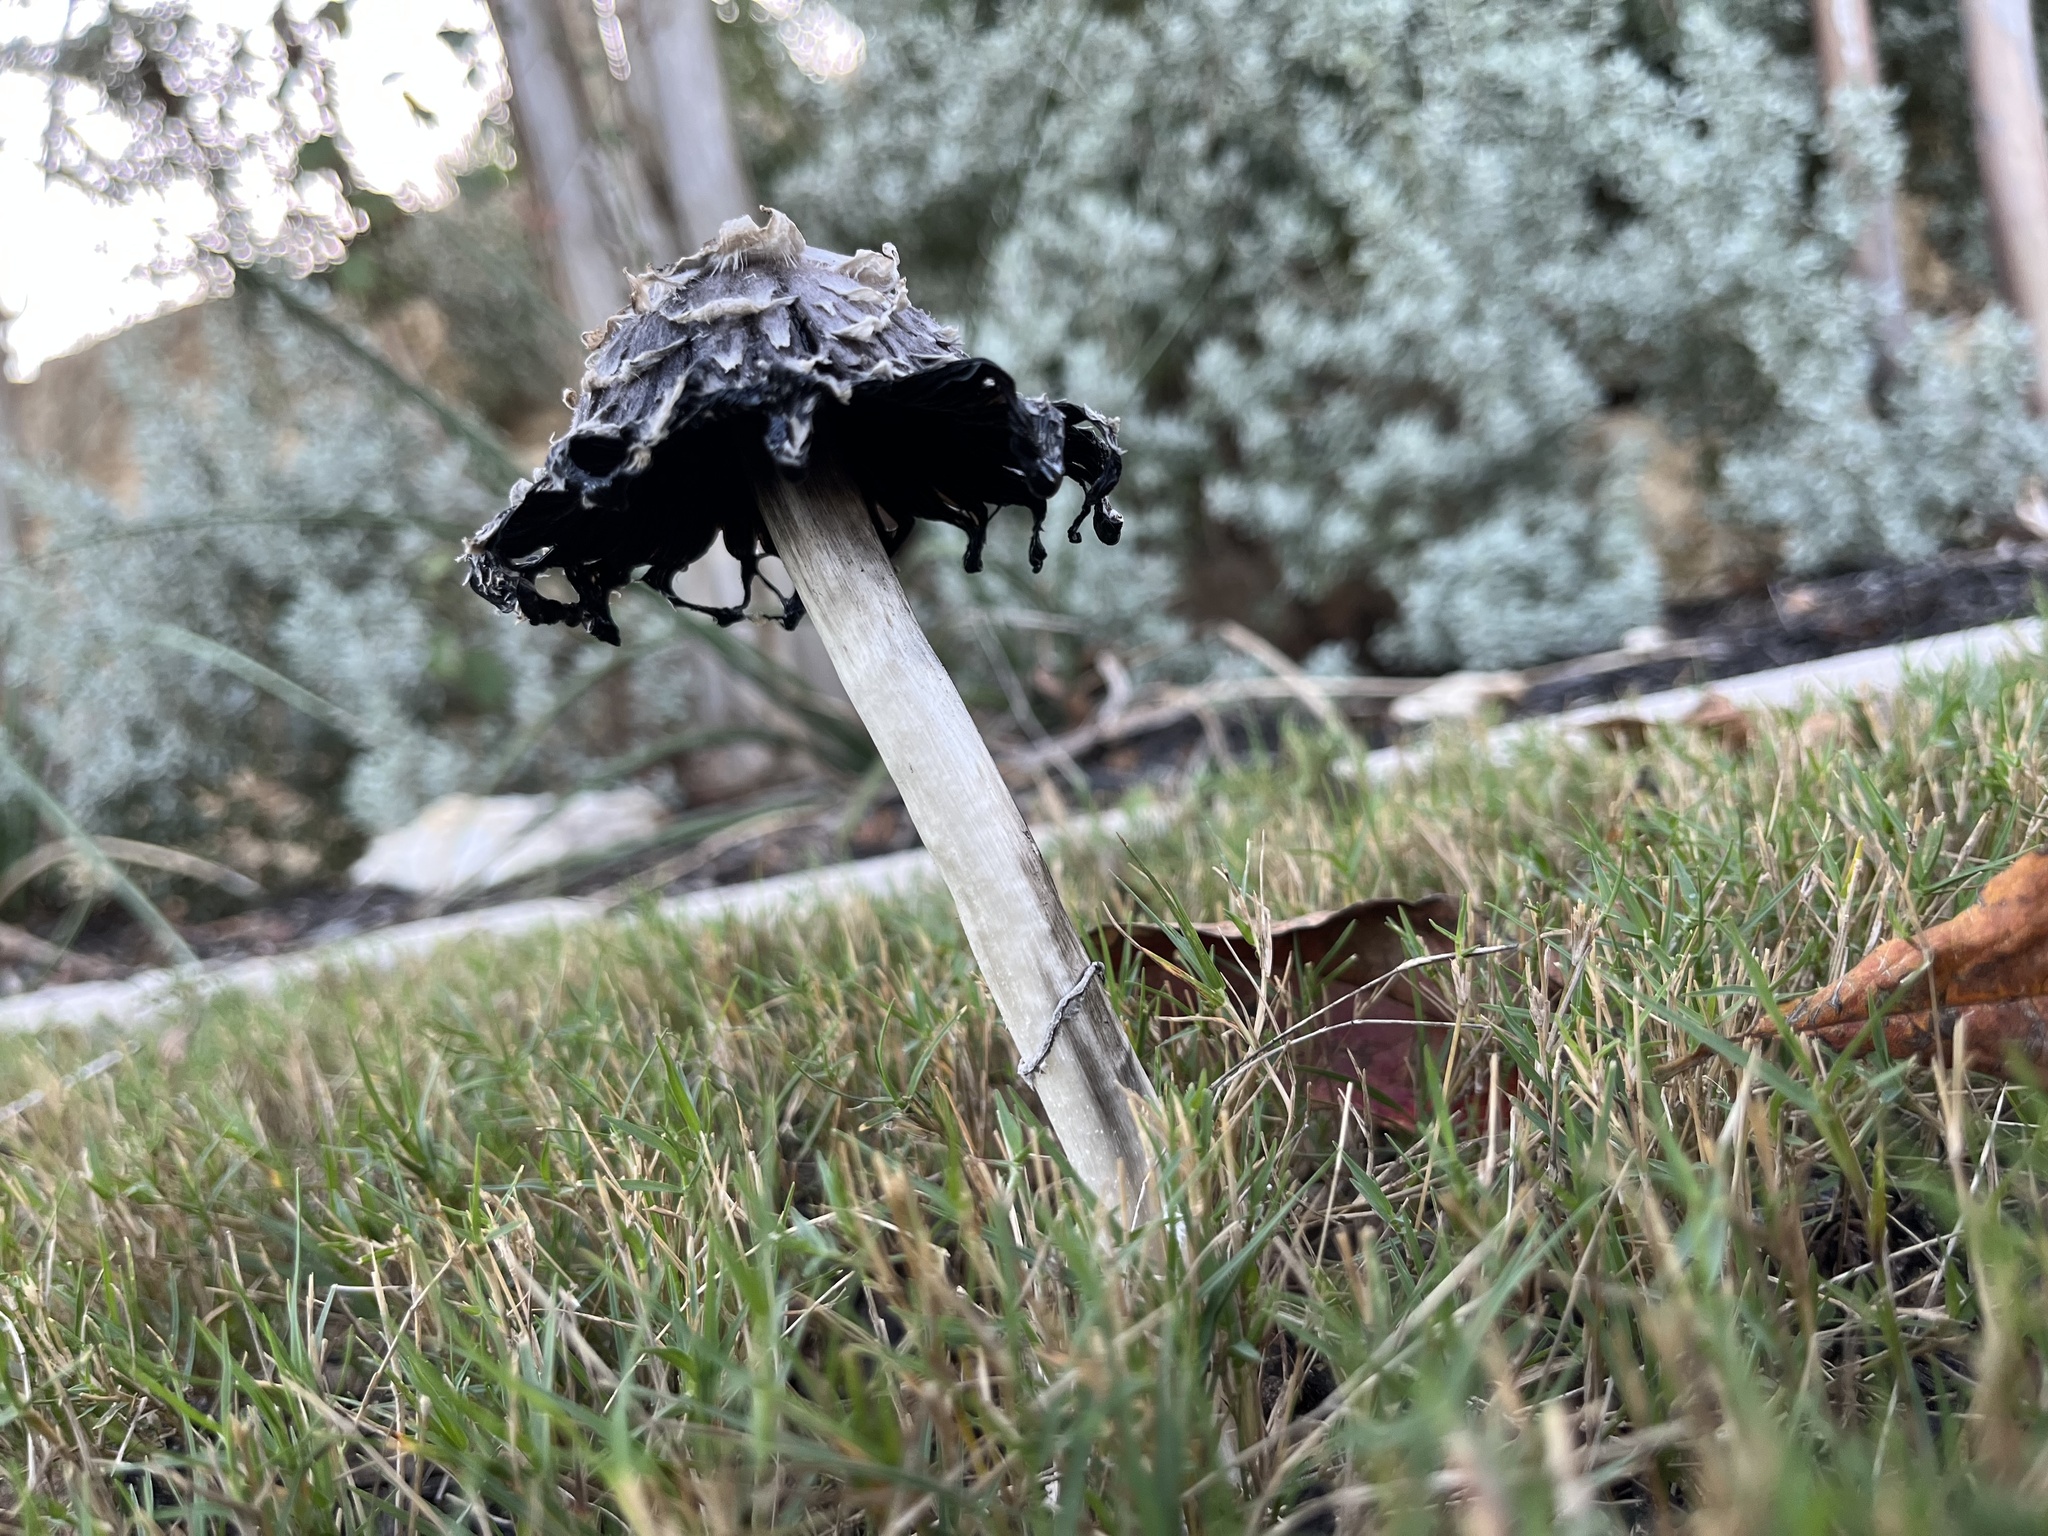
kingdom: Fungi
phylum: Basidiomycota
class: Agaricomycetes
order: Agaricales
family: Agaricaceae
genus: Coprinus
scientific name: Coprinus comatus
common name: Lawyer's wig
